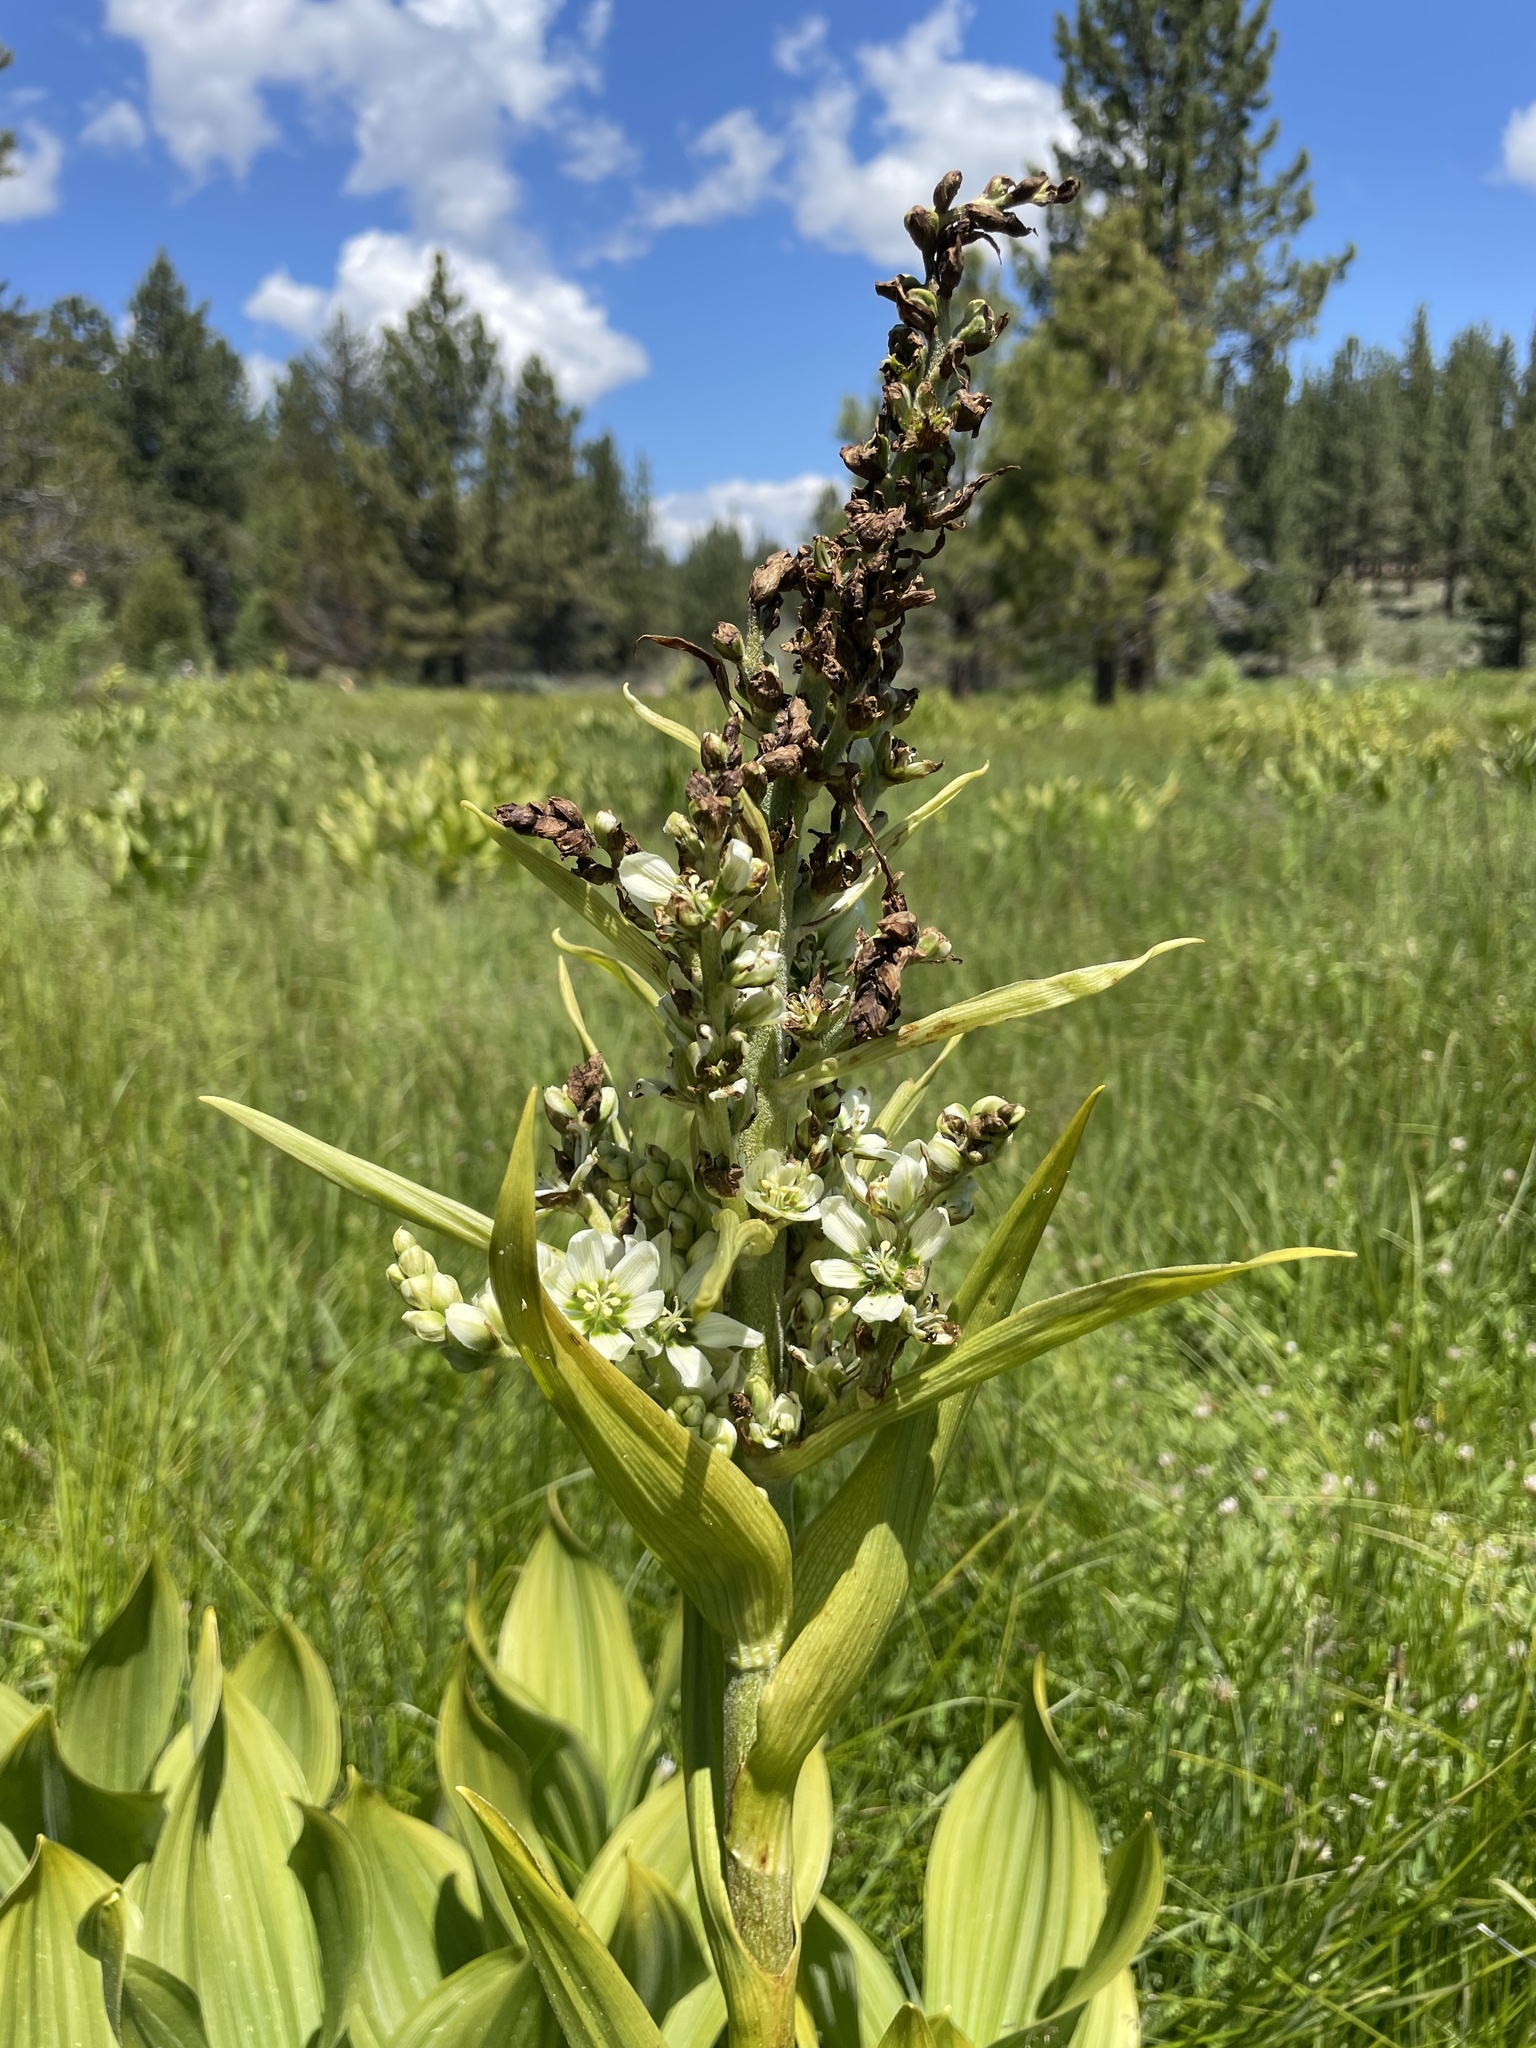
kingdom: Plantae
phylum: Tracheophyta
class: Liliopsida
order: Liliales
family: Melanthiaceae
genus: Veratrum
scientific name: Veratrum californicum
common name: California veratrum
